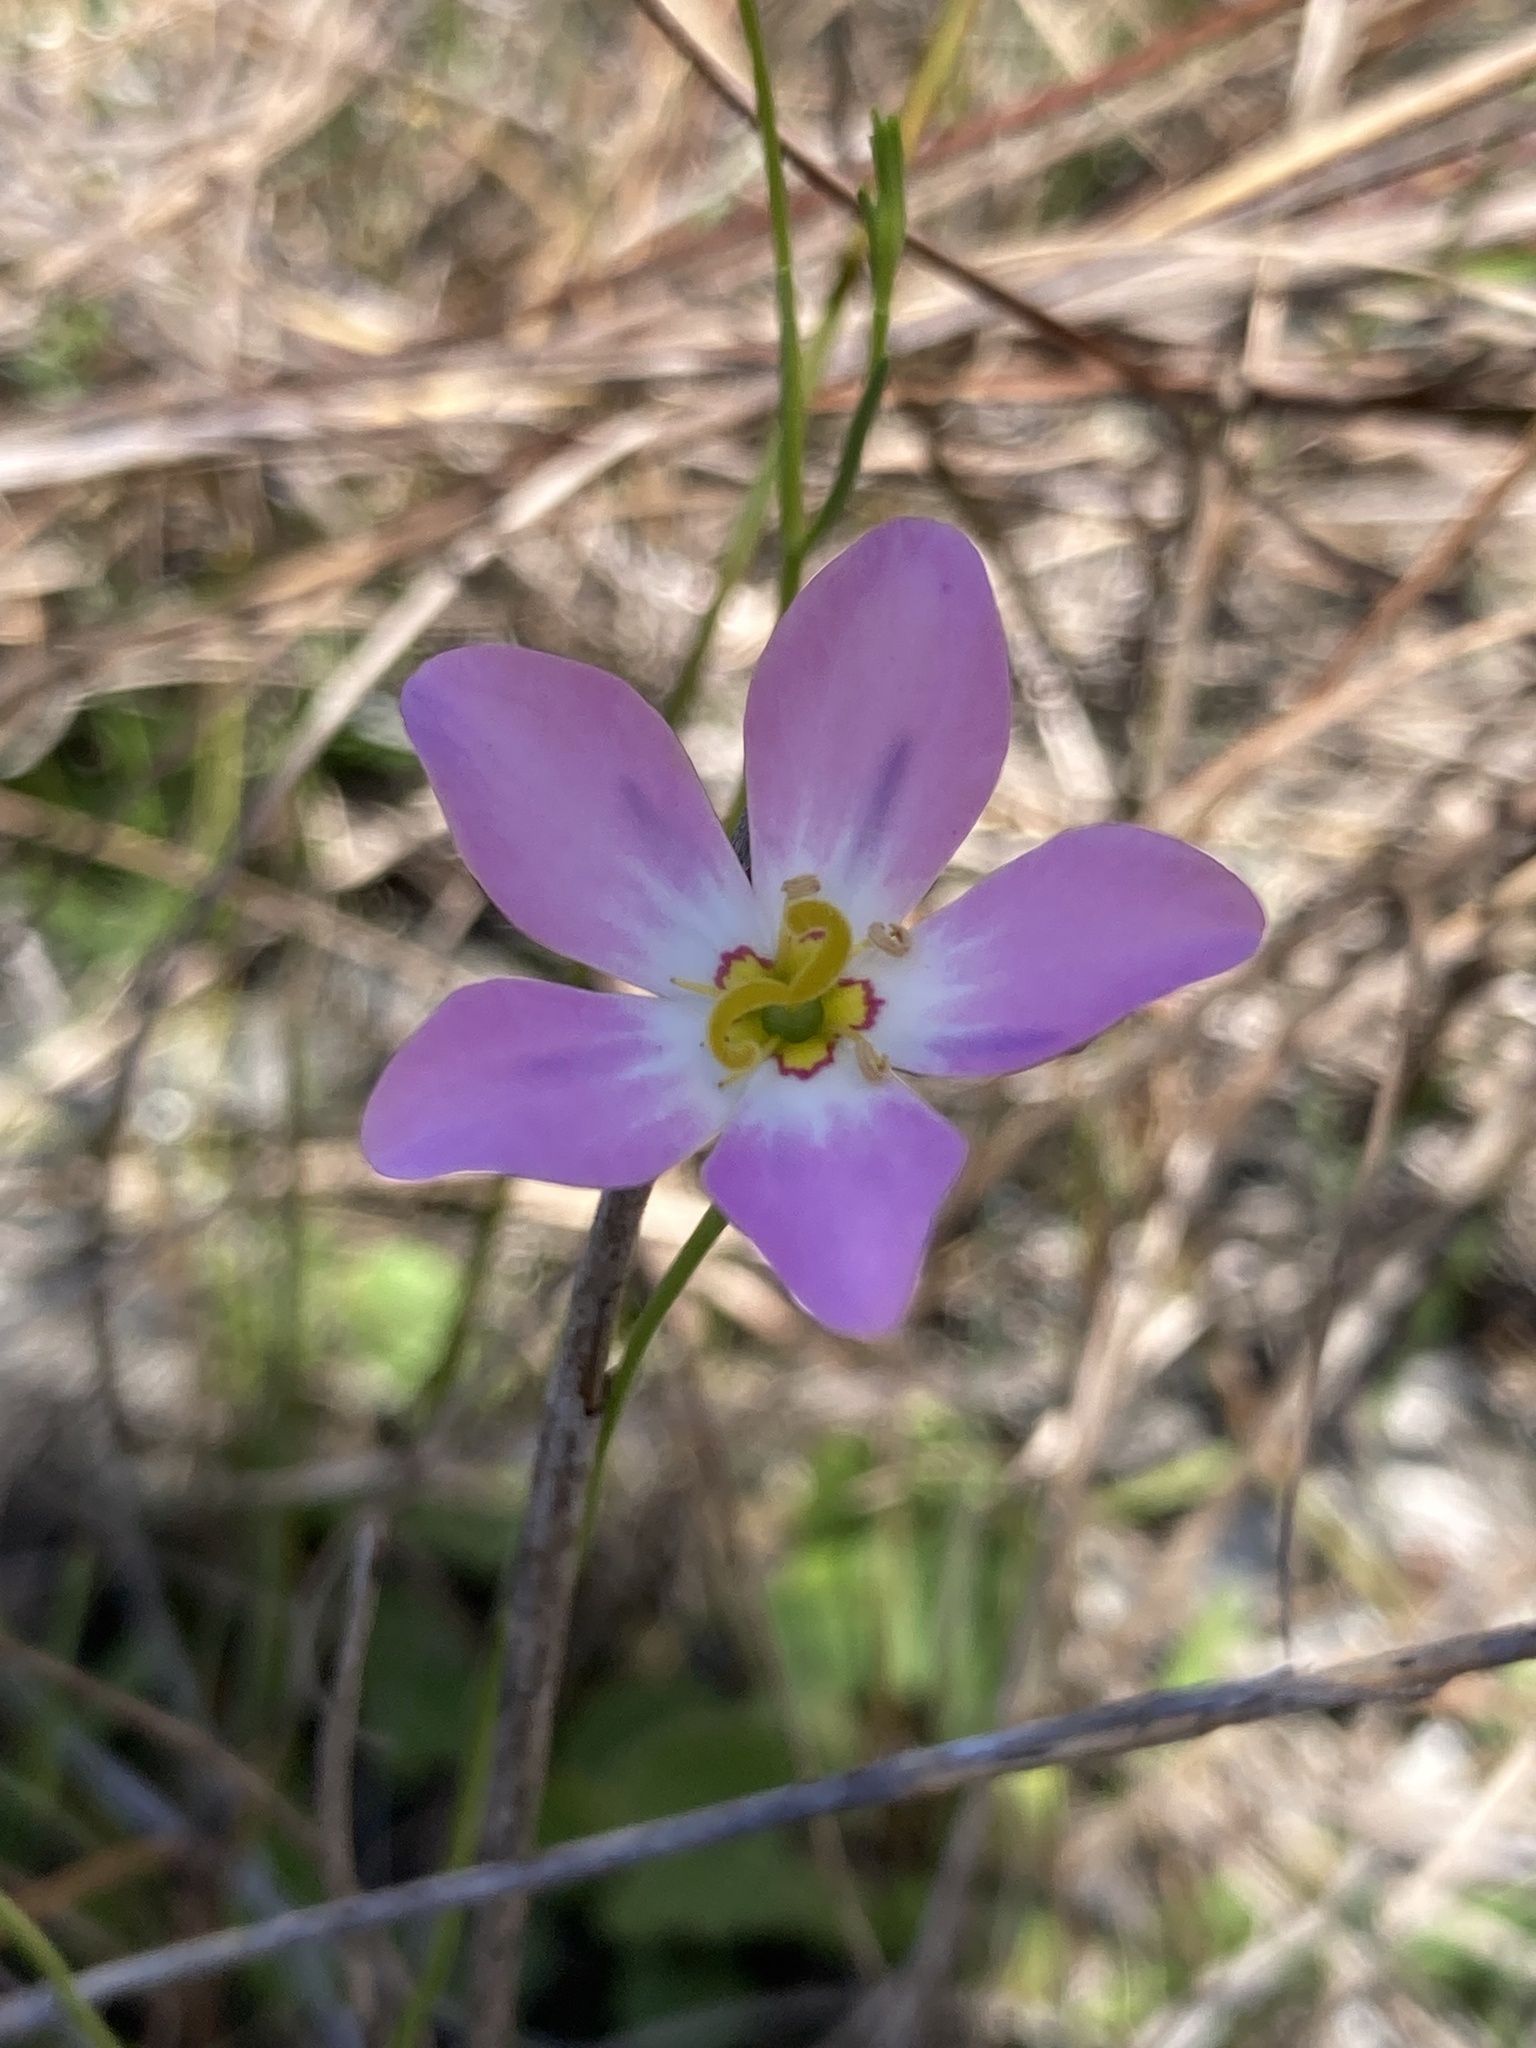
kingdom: Plantae
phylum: Tracheophyta
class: Magnoliopsida
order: Gentianales
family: Gentianaceae
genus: Sabatia
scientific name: Sabatia stellaris
